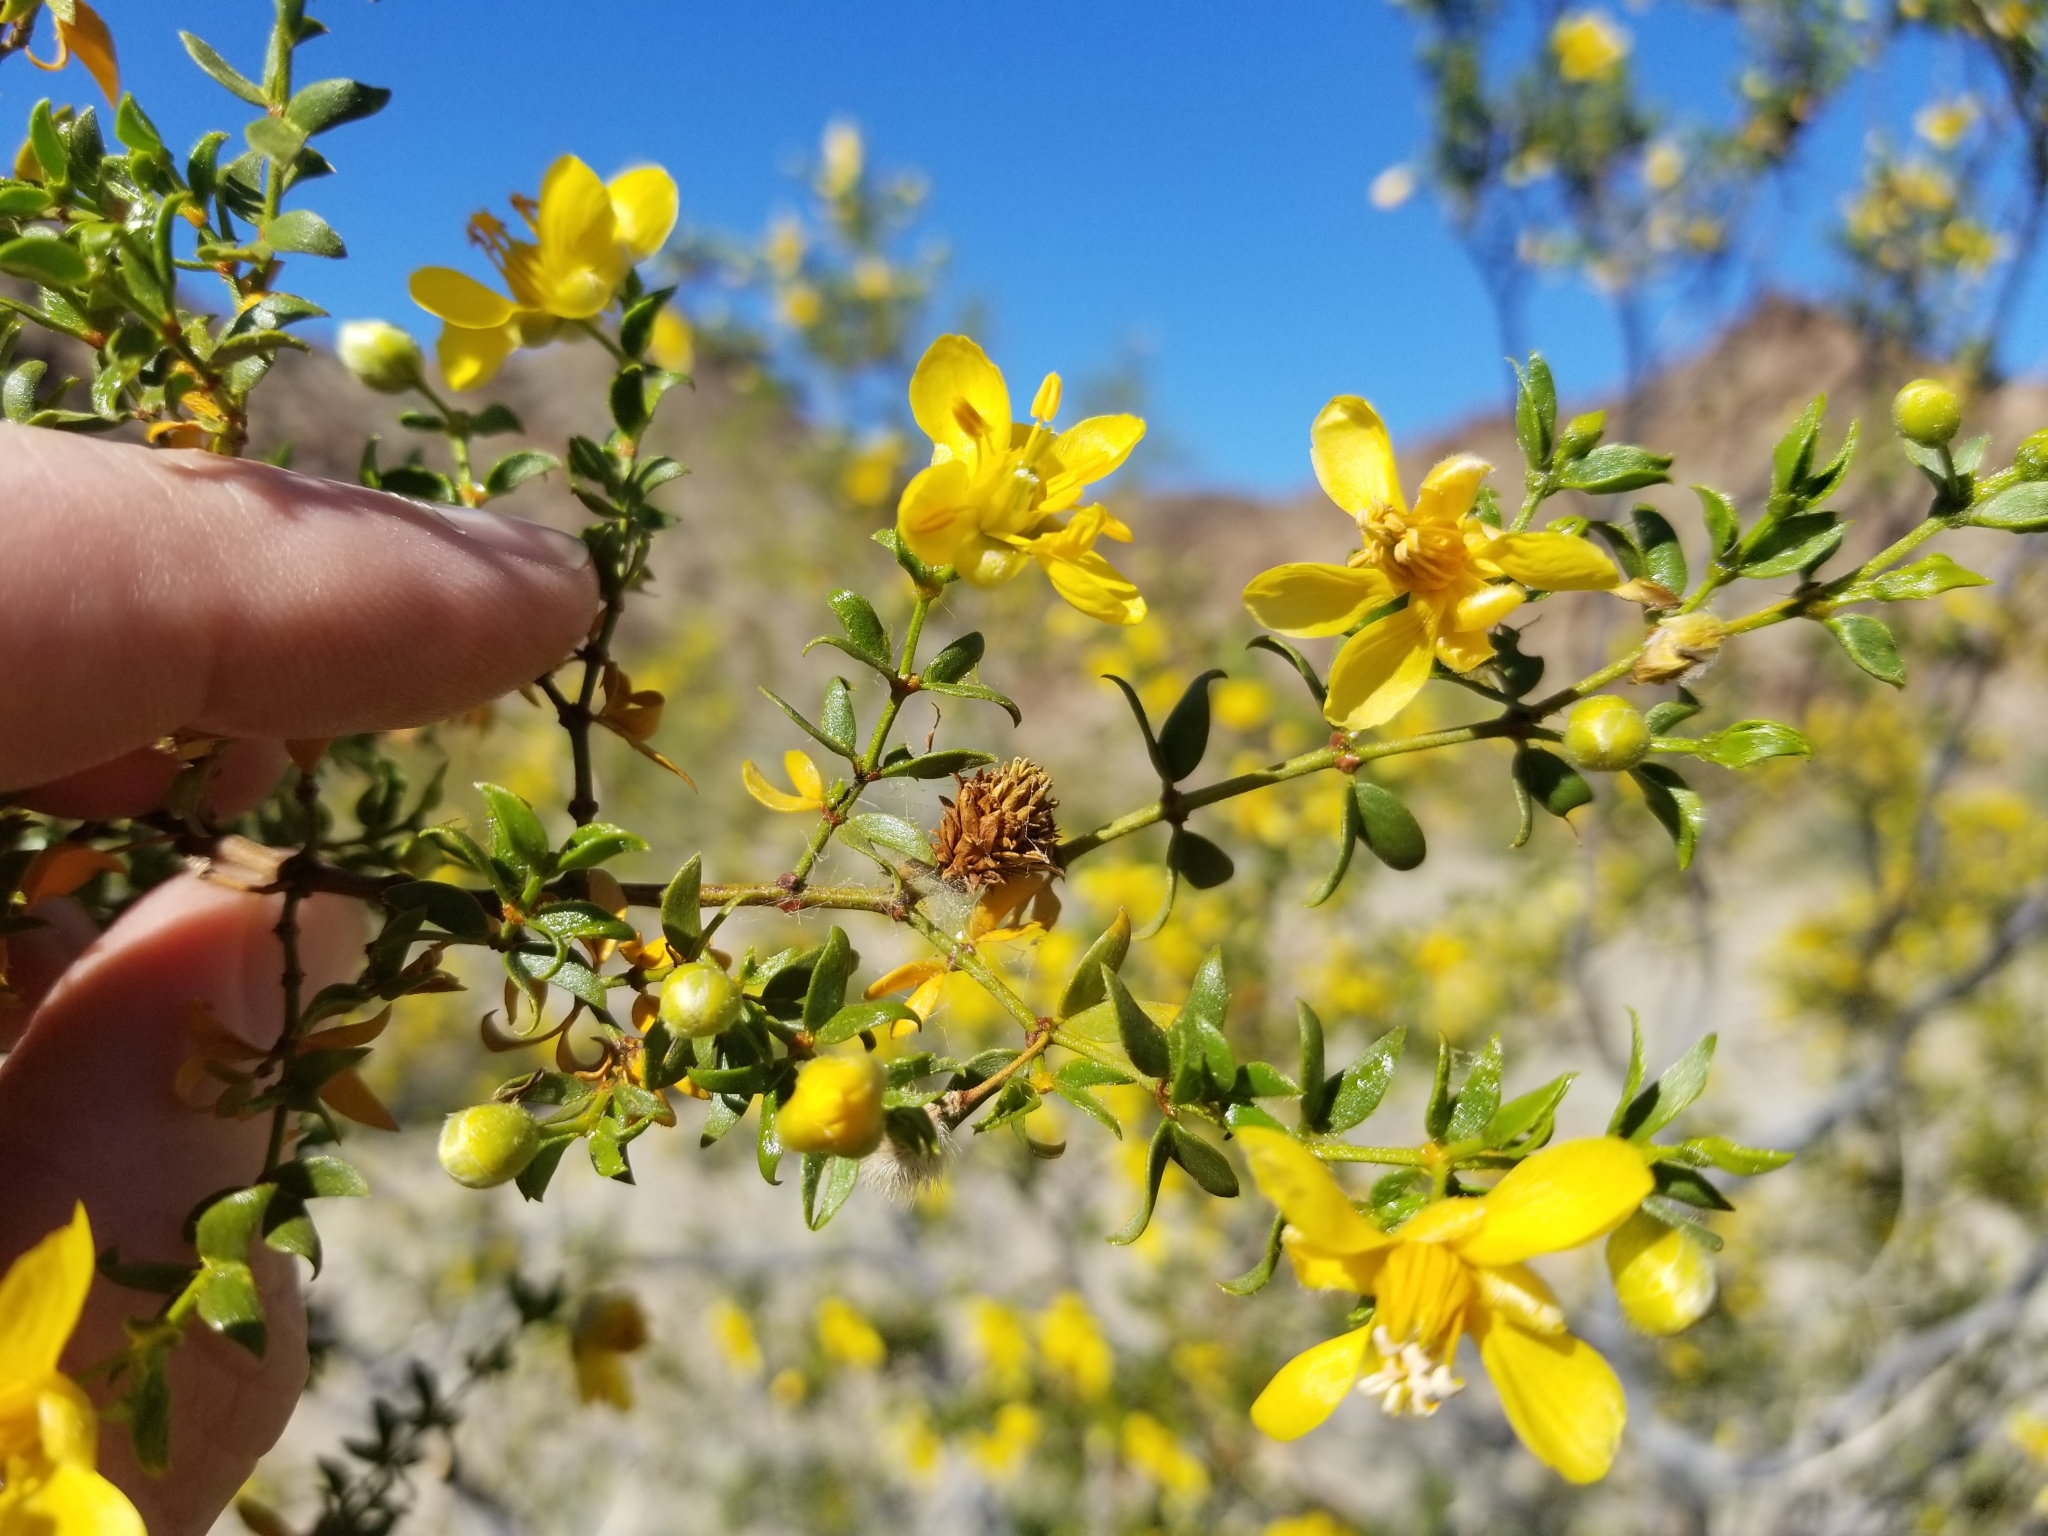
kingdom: Plantae
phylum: Tracheophyta
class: Magnoliopsida
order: Zygophyllales
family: Zygophyllaceae
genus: Larrea
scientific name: Larrea tridentata
